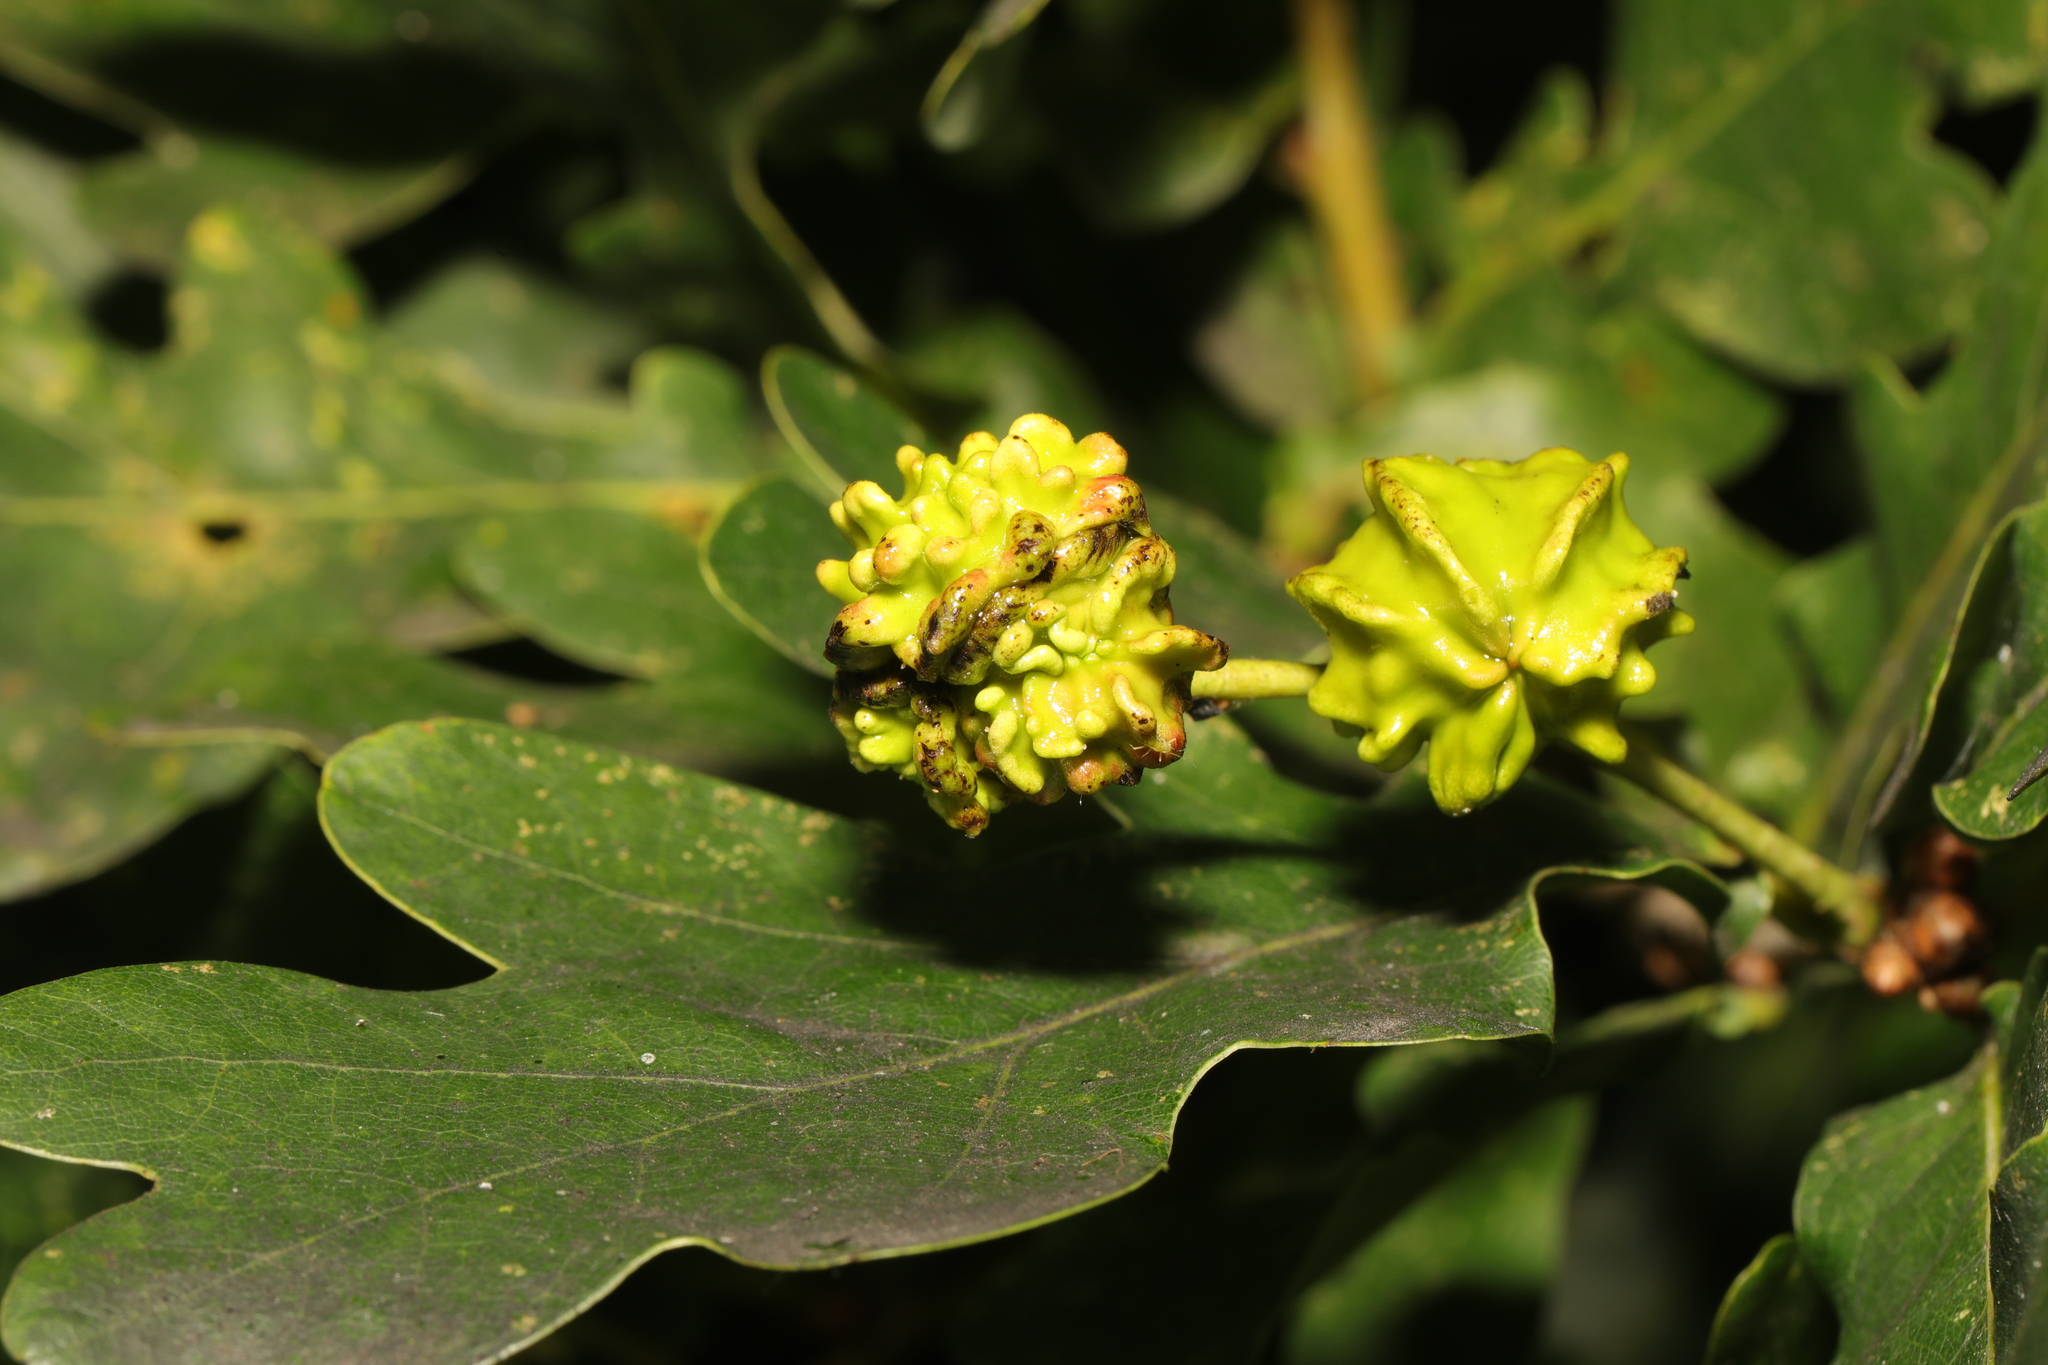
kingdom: Animalia
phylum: Arthropoda
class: Insecta
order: Hymenoptera
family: Cynipidae
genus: Andricus
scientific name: Andricus quercuscalicis
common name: Knopper gall
